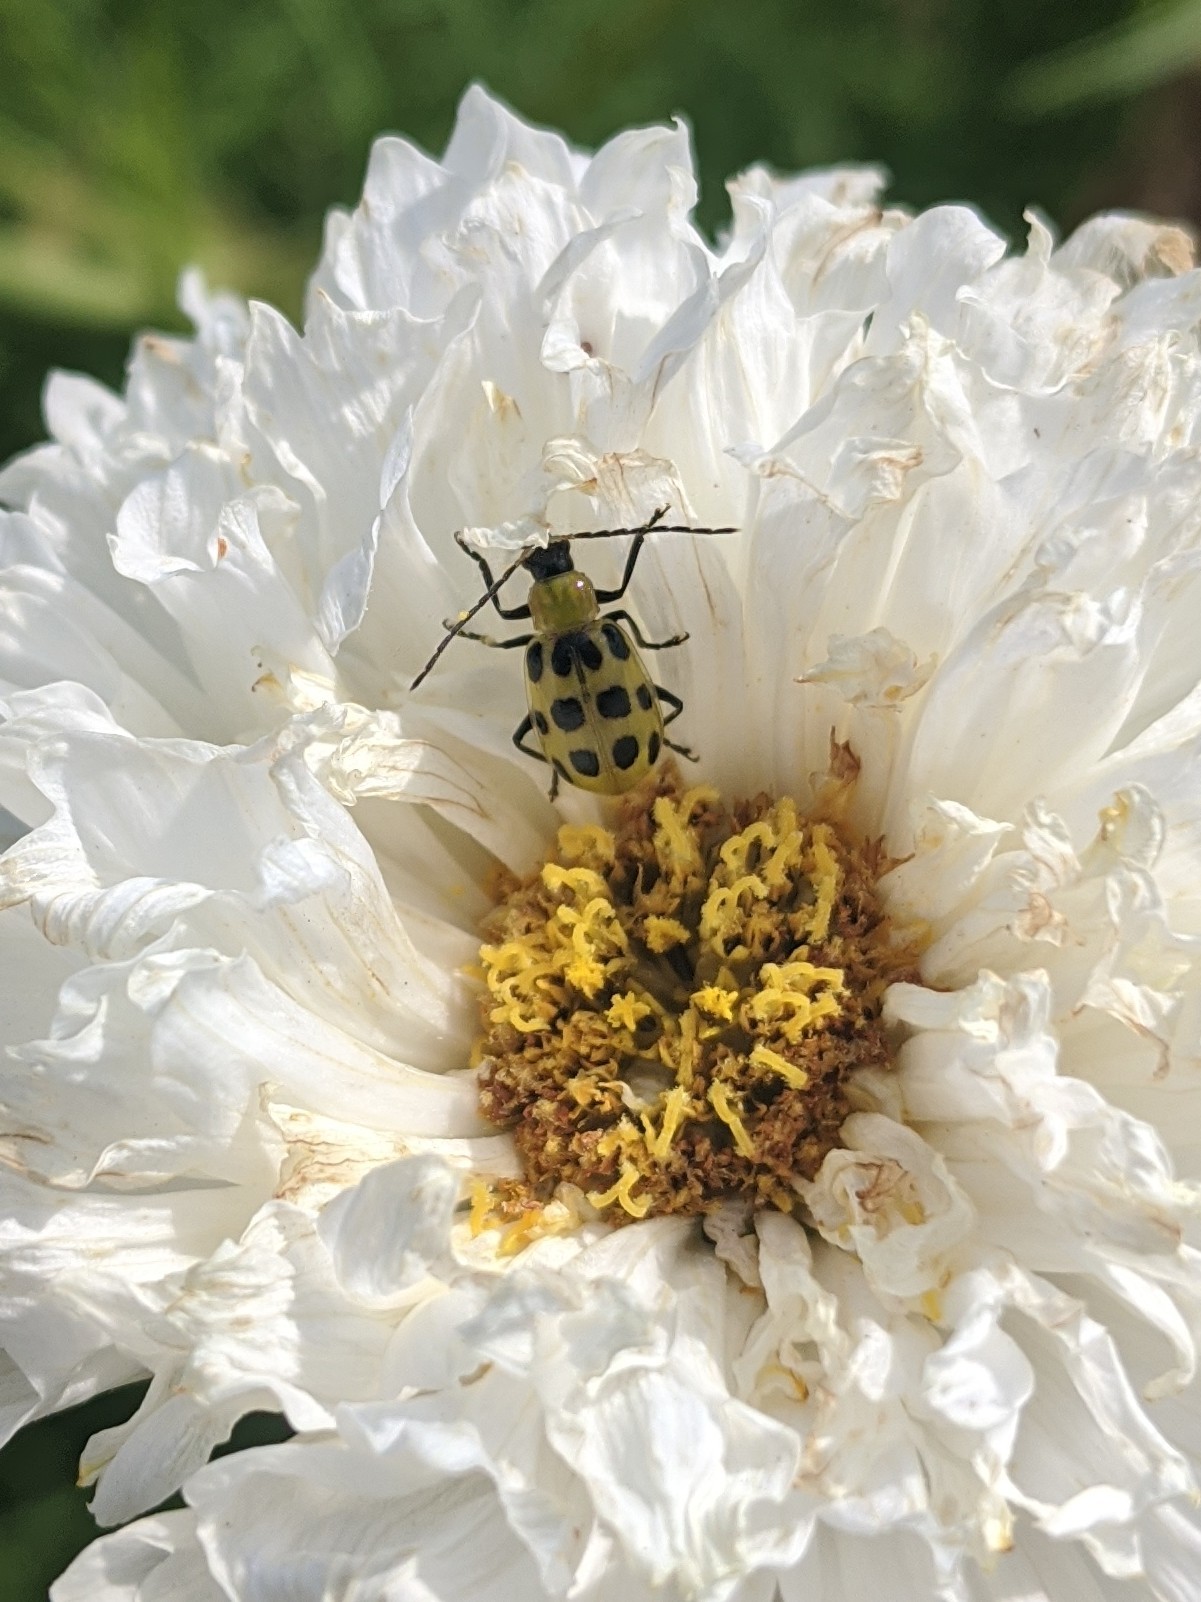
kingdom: Animalia
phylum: Arthropoda
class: Insecta
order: Coleoptera
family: Chrysomelidae
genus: Diabrotica
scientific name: Diabrotica undecimpunctata
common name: Spotted cucumber beetle
